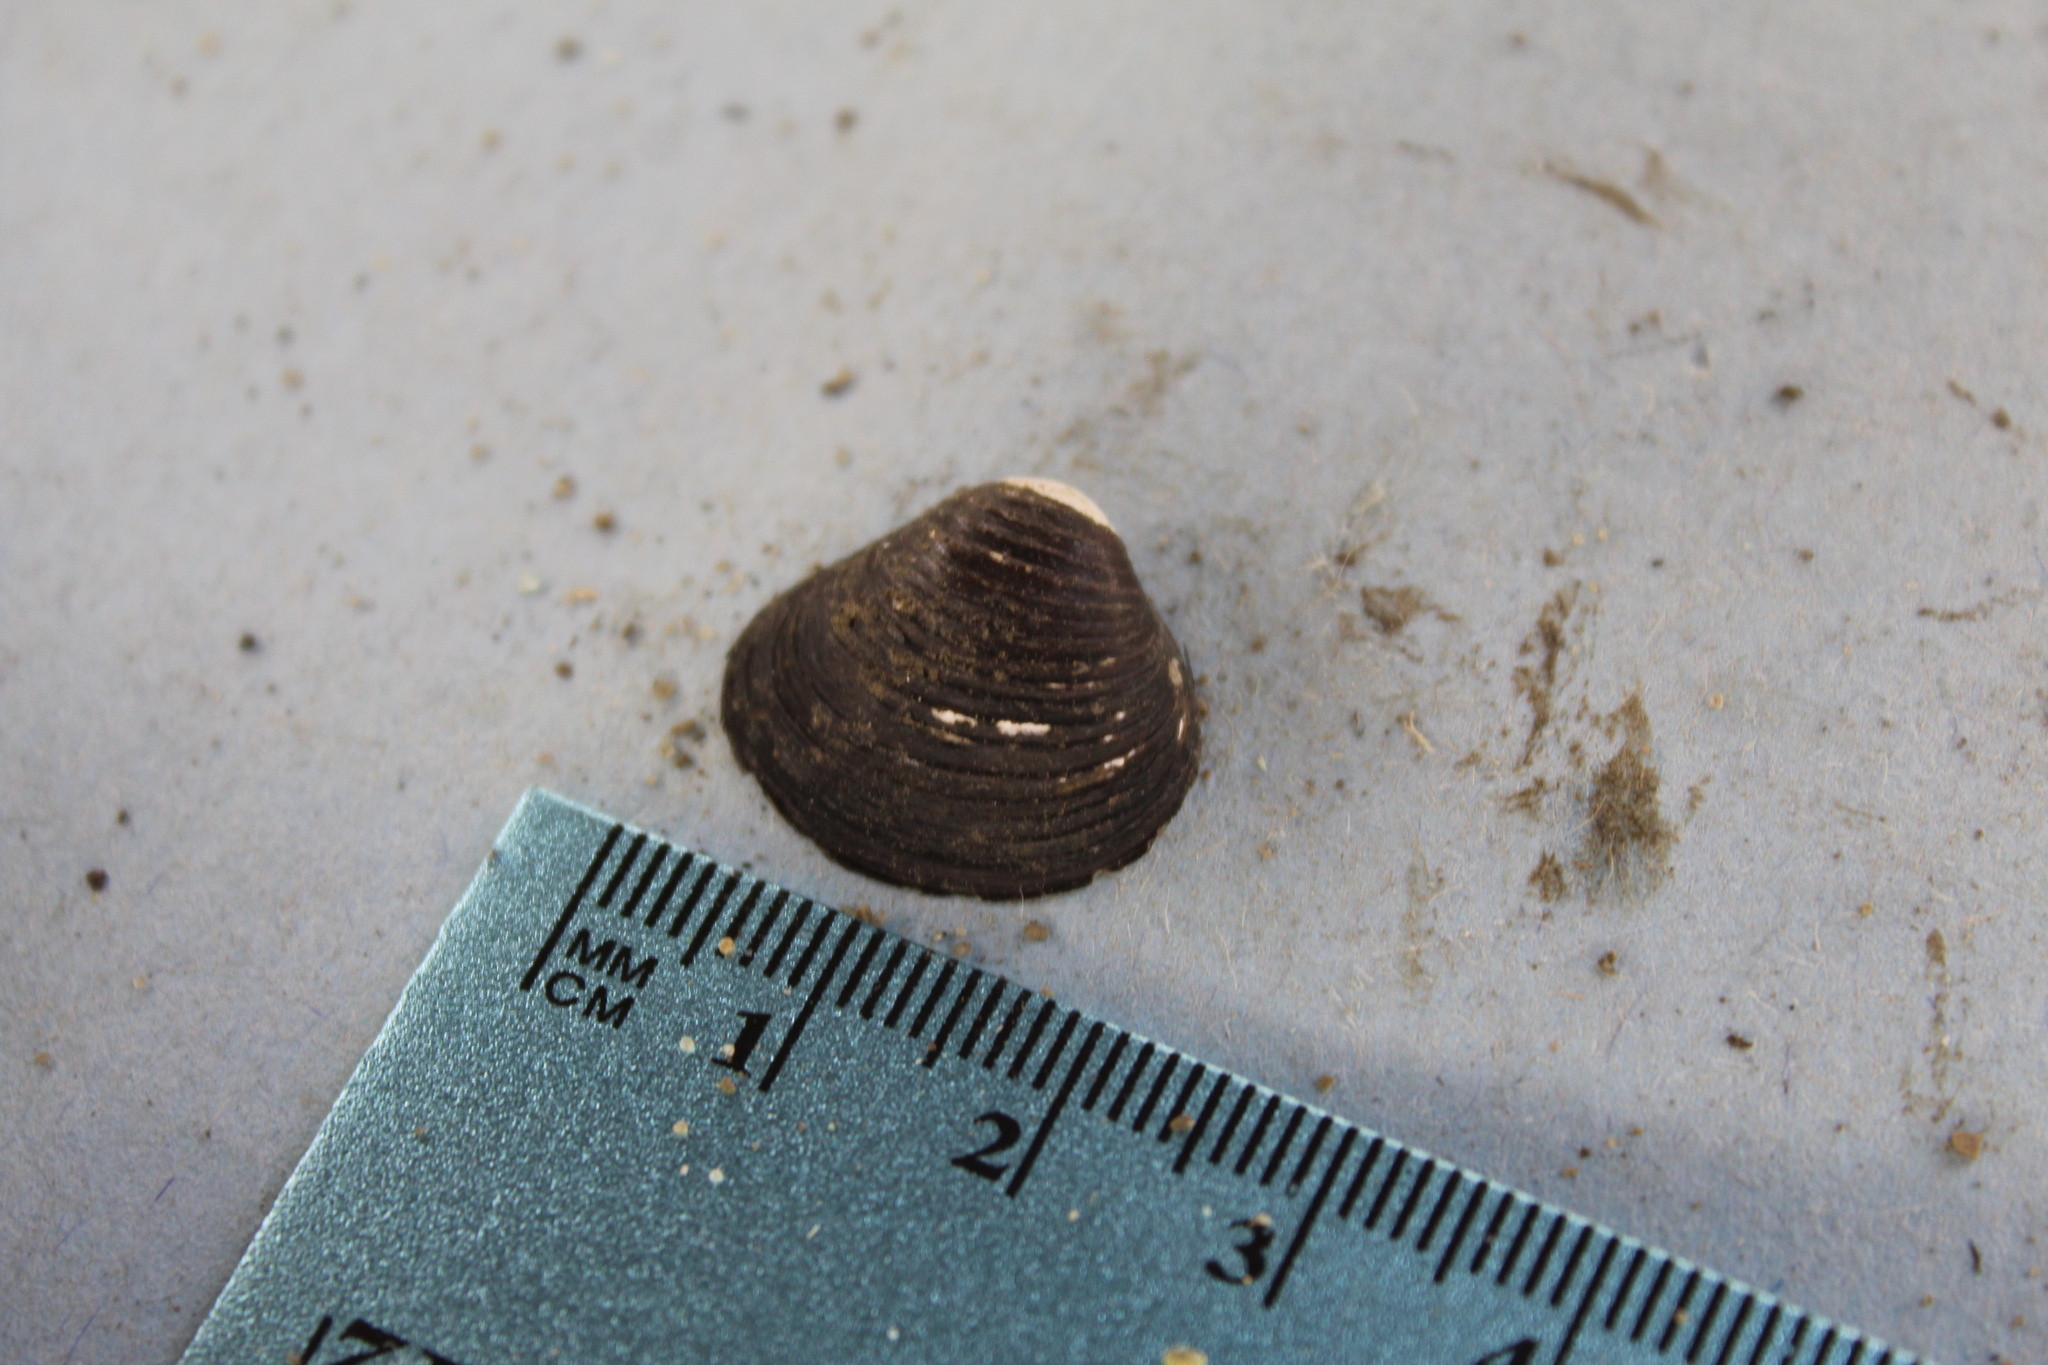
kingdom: Animalia
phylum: Mollusca
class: Bivalvia
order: Venerida
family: Cyrenidae
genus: Corbicula
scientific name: Corbicula fluminea
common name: Asian clam
